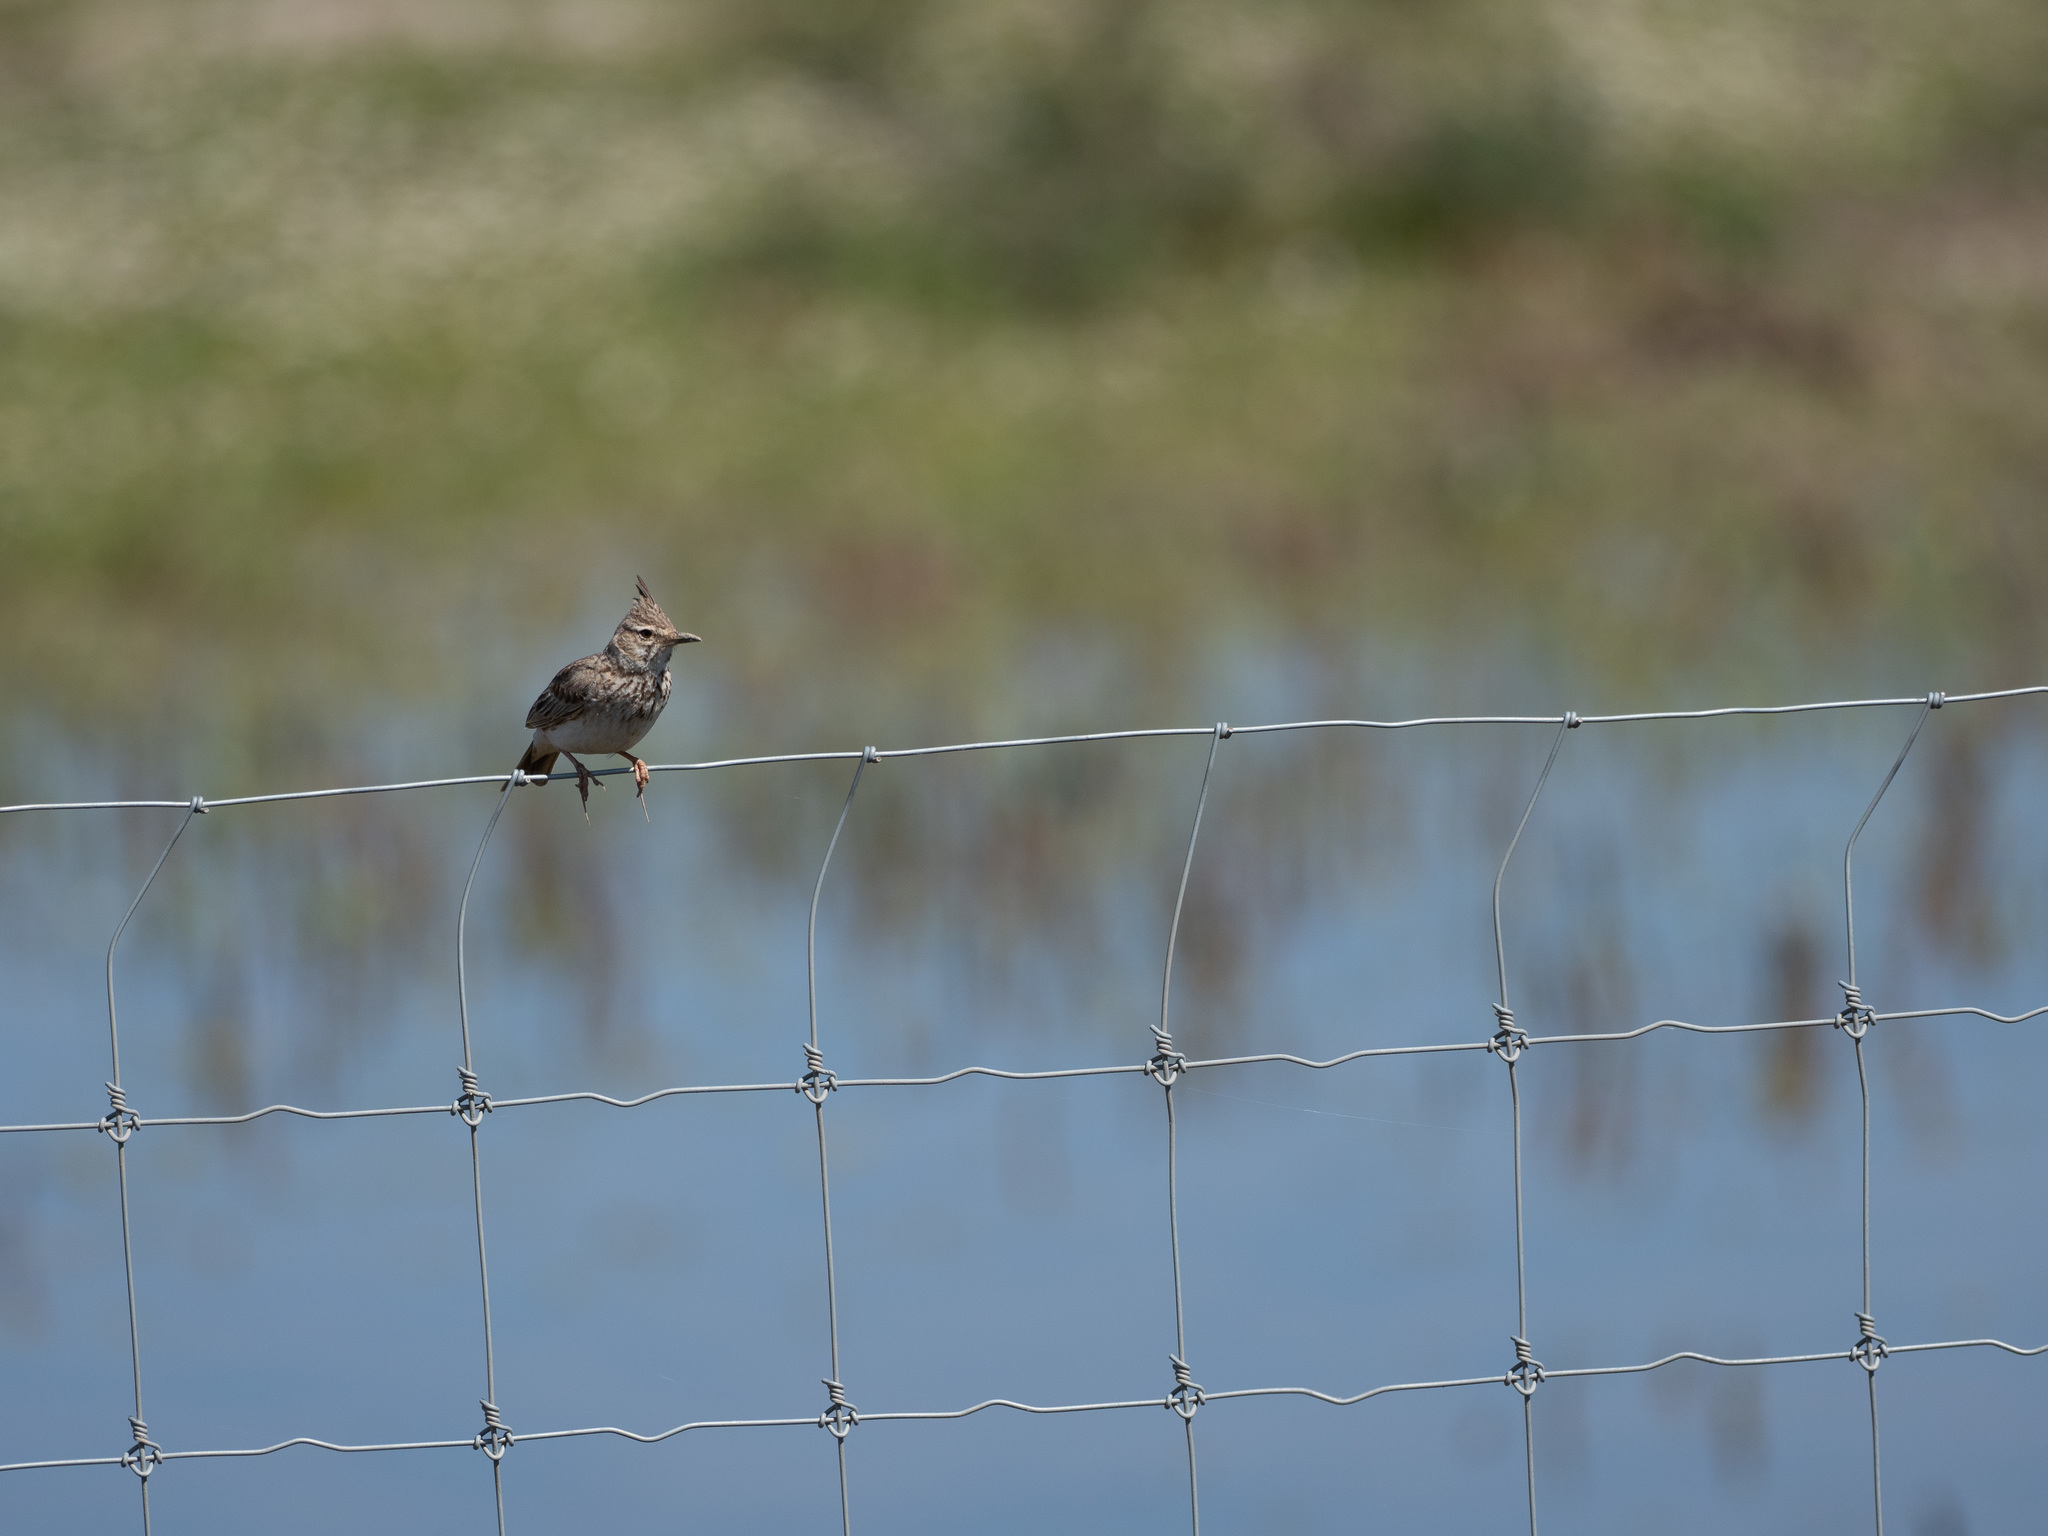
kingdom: Animalia
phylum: Chordata
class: Aves
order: Passeriformes
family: Alaudidae
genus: Galerida
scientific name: Galerida cristata
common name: Crested lark
